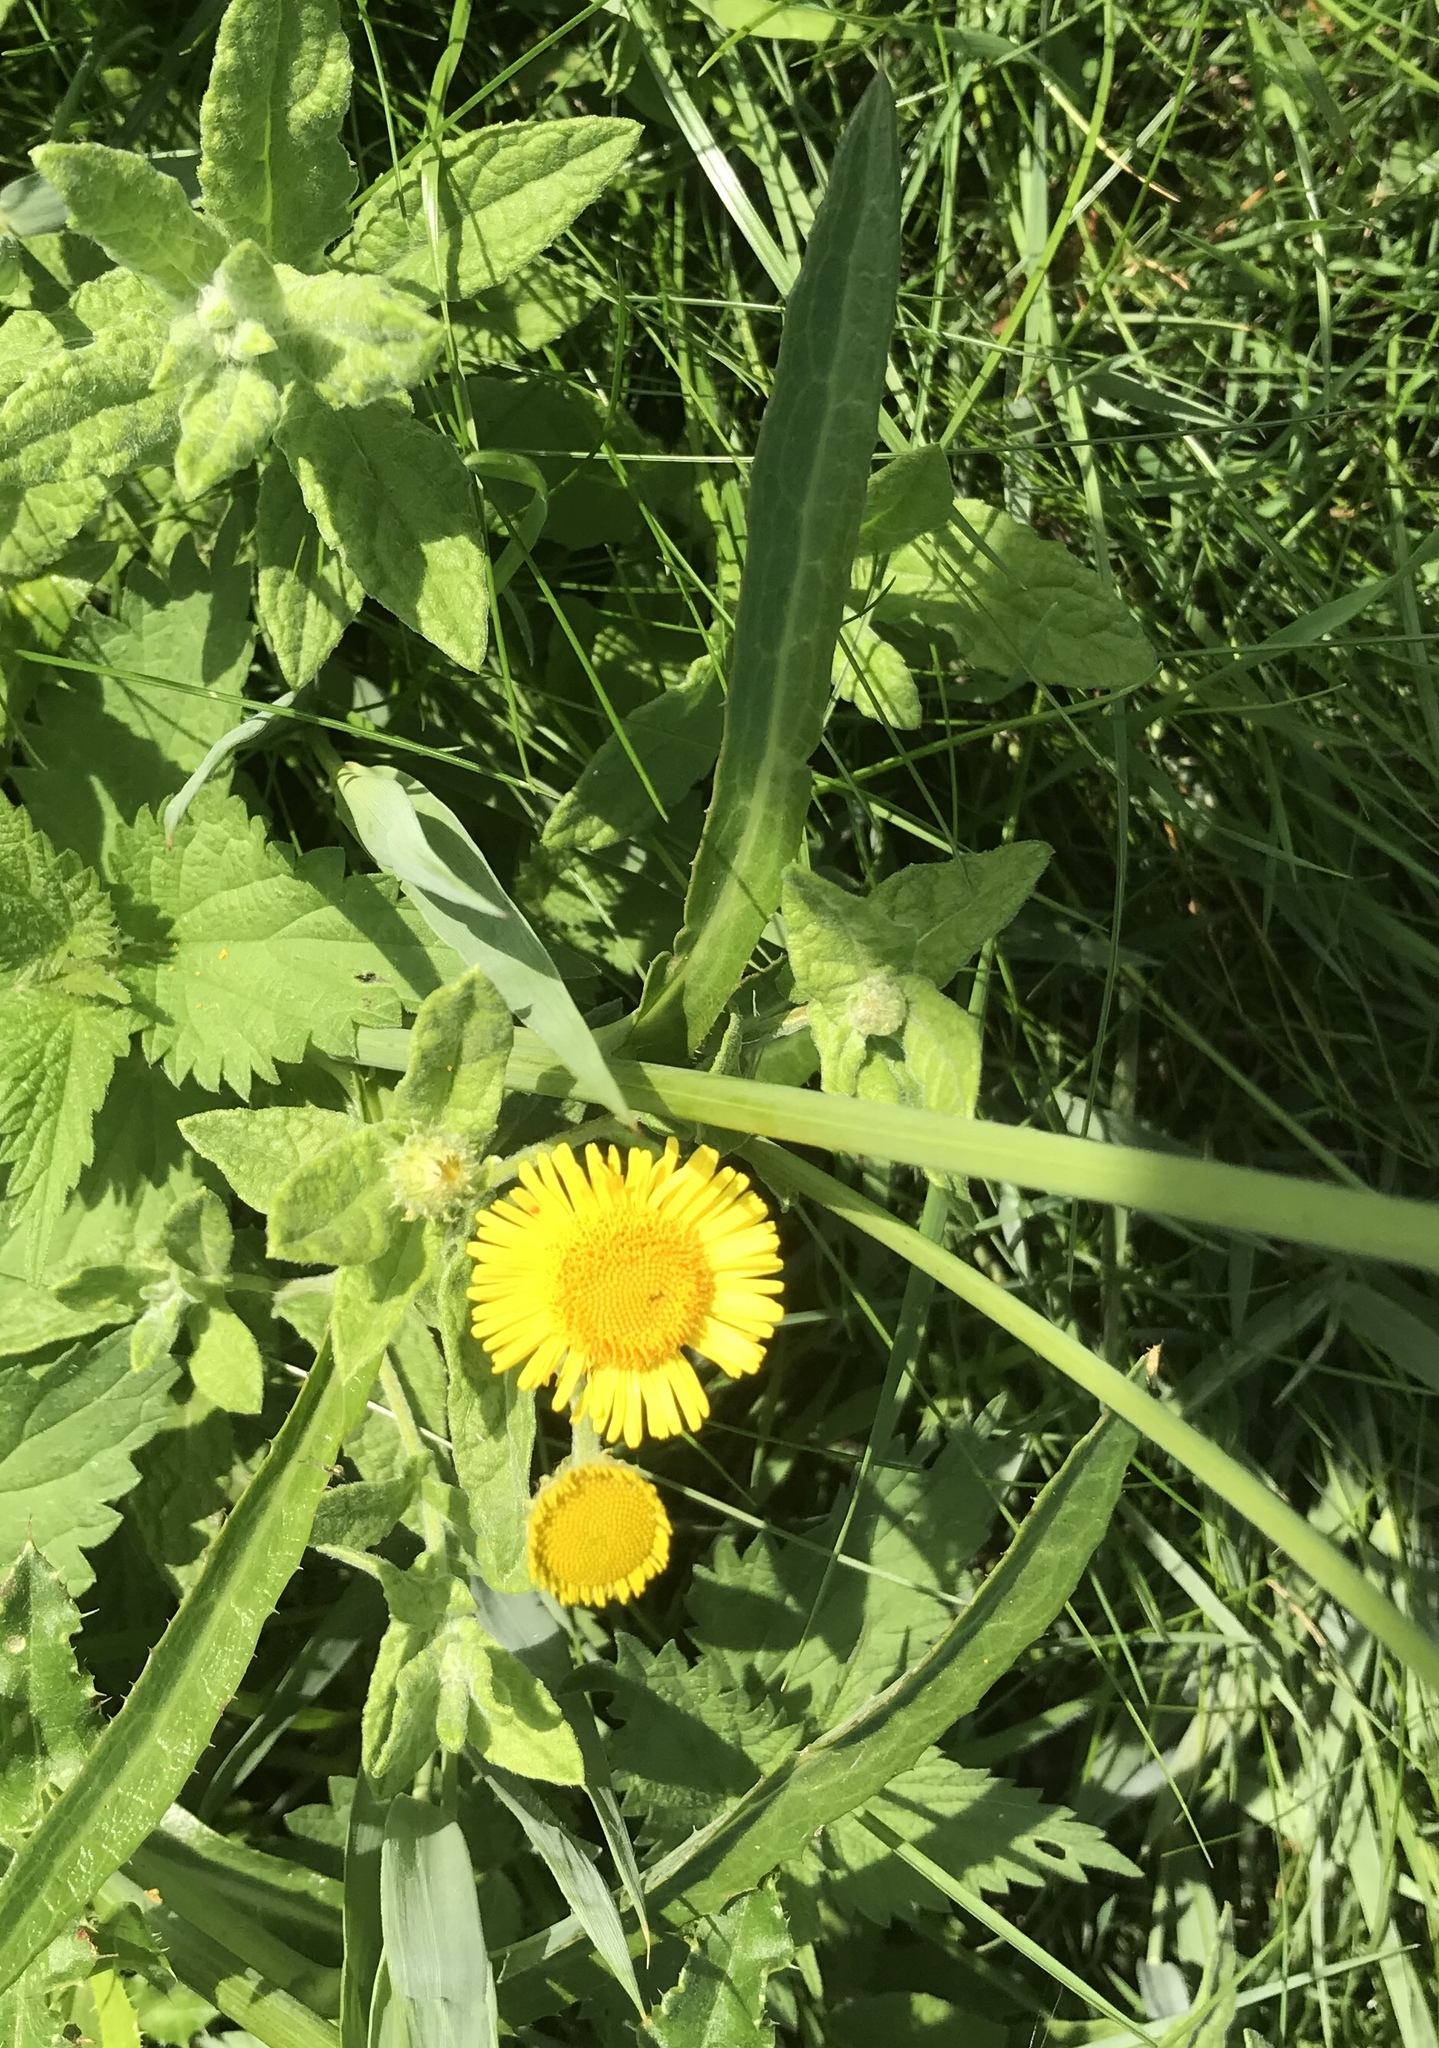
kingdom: Plantae
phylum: Tracheophyta
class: Magnoliopsida
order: Asterales
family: Asteraceae
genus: Pulicaria
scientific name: Pulicaria dysenterica
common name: Common fleabane
